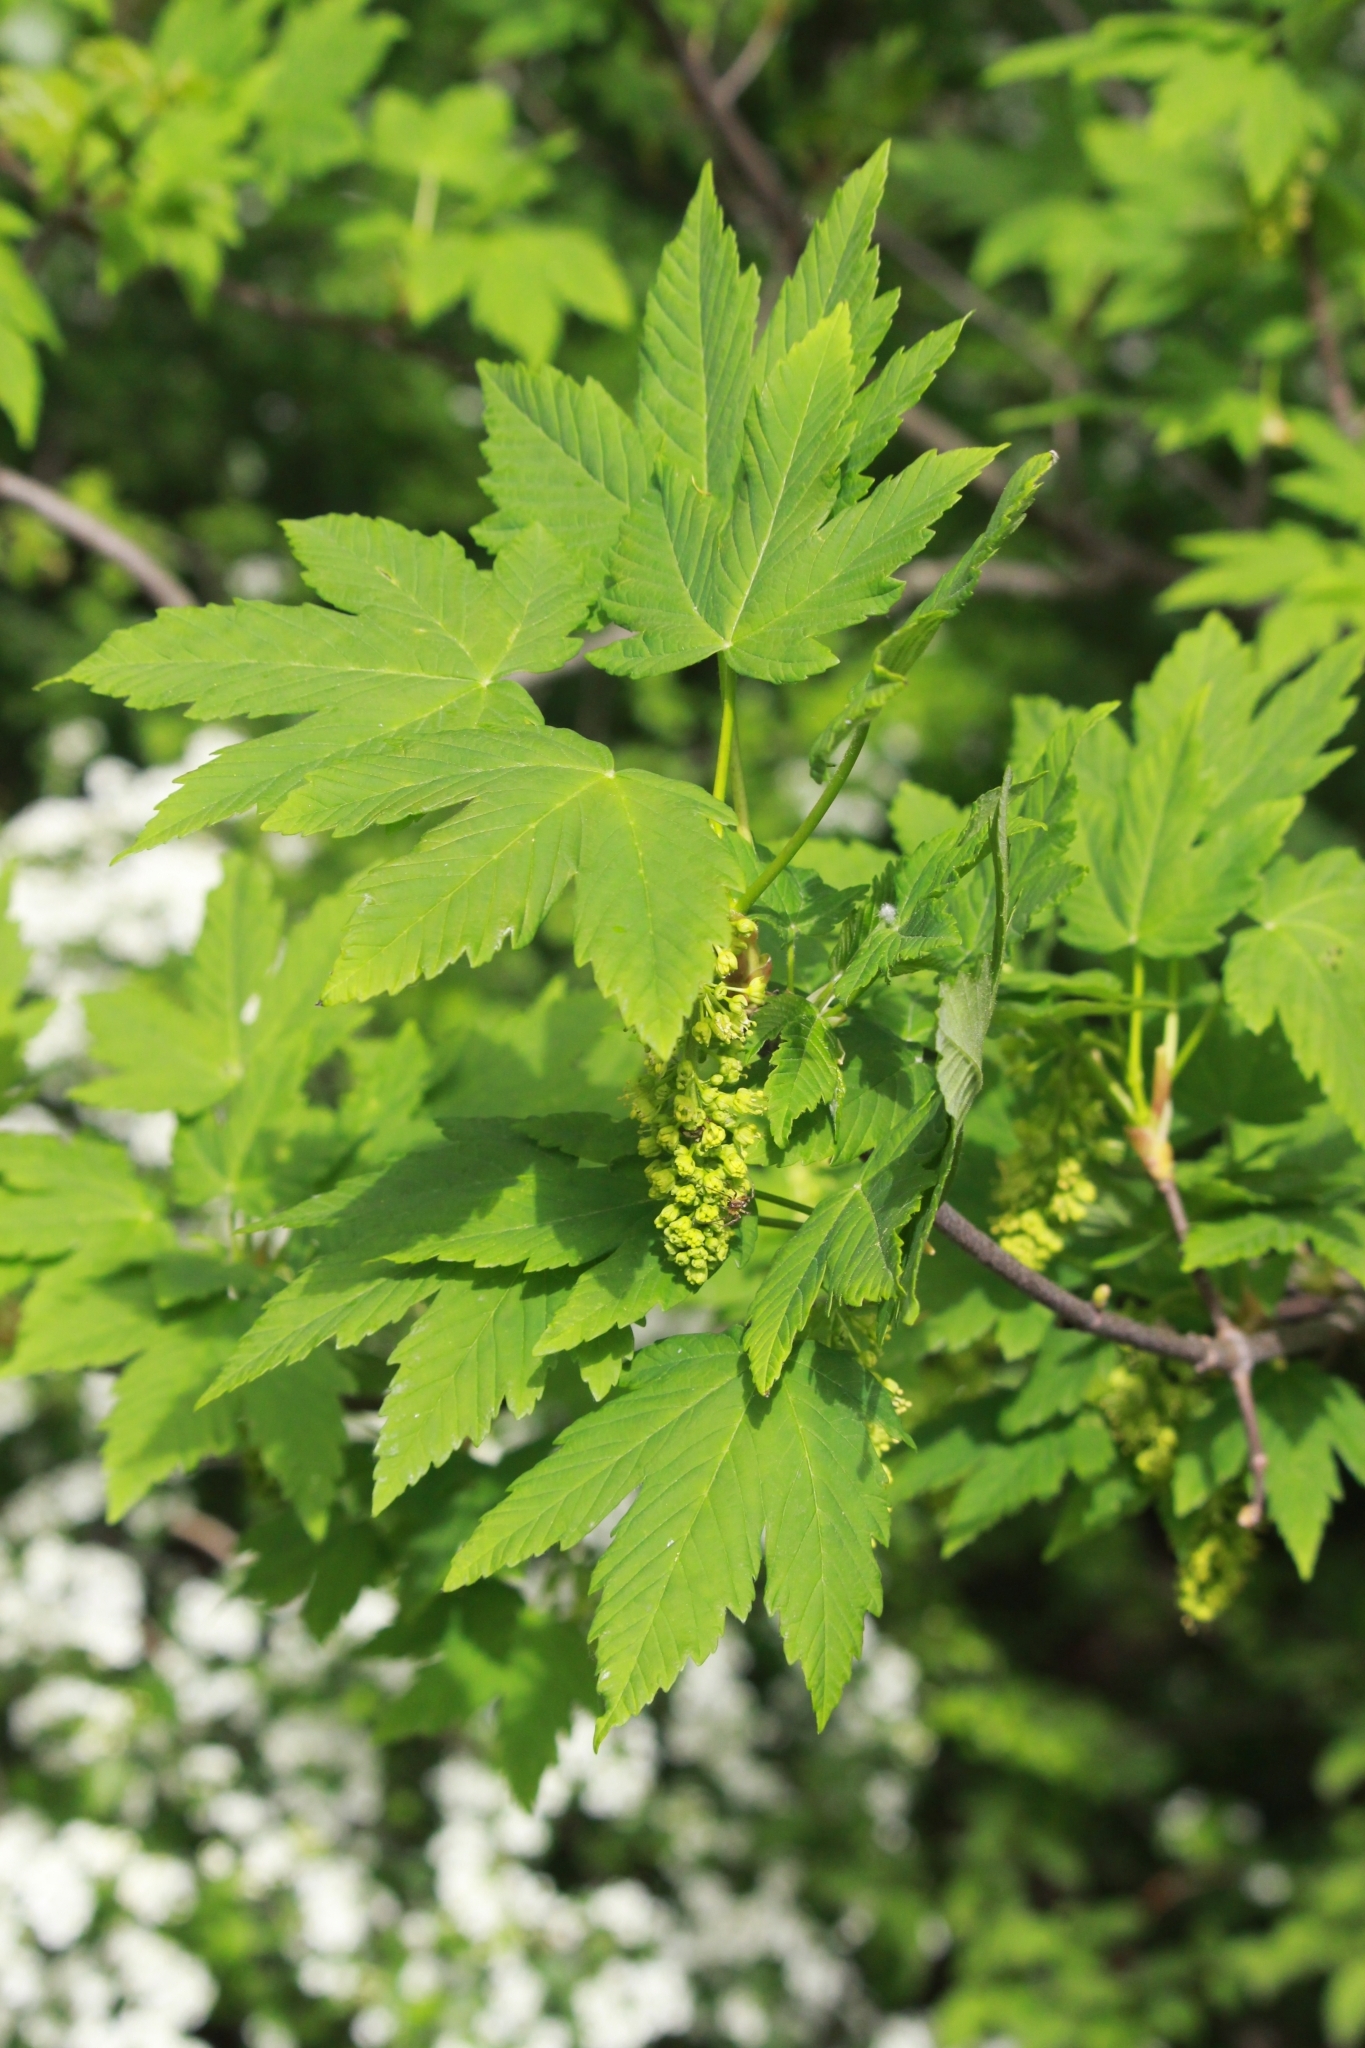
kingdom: Plantae
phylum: Tracheophyta
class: Magnoliopsida
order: Sapindales
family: Sapindaceae
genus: Acer
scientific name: Acer pseudoplatanus
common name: Sycamore
